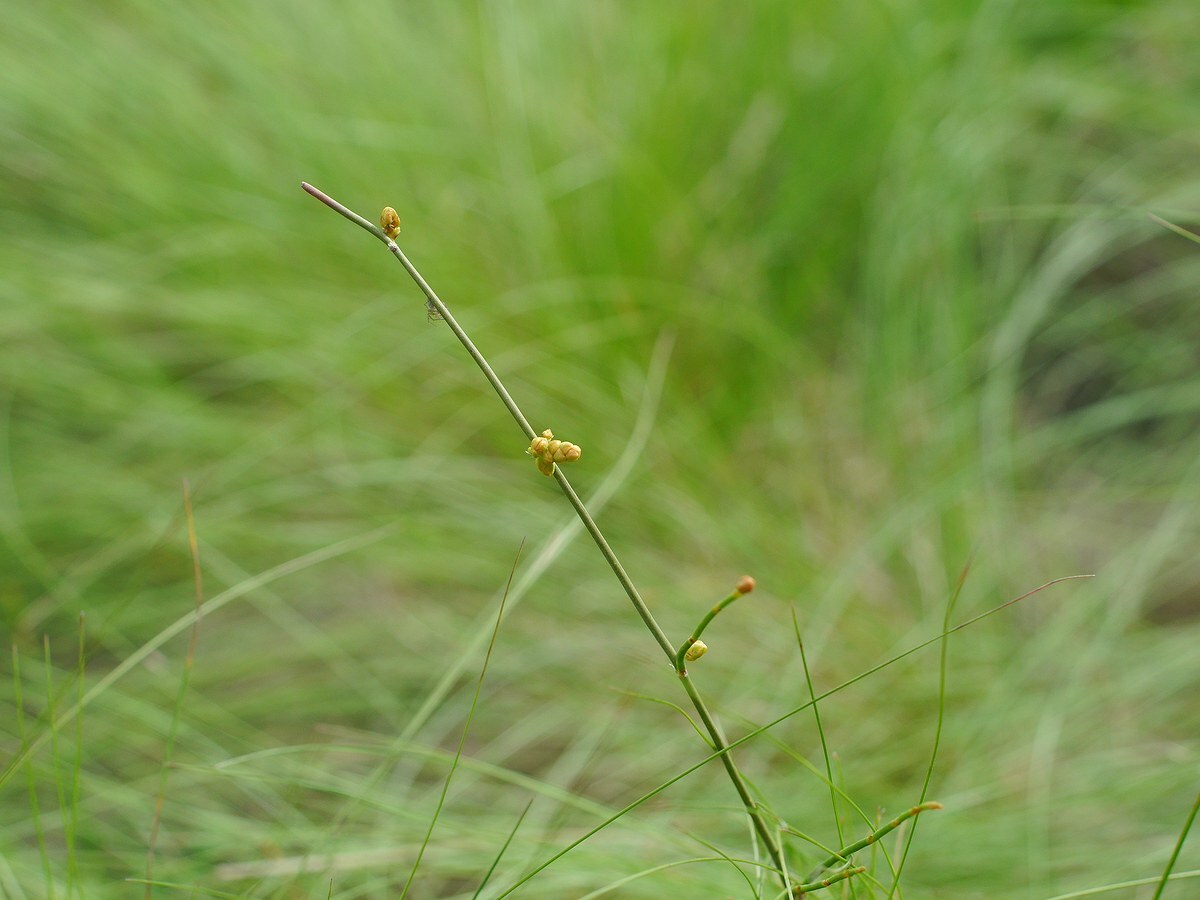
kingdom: Plantae
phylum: Tracheophyta
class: Gnetopsida
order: Ephedrales
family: Ephedraceae
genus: Ephedra
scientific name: Ephedra distachya
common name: Sea grape
